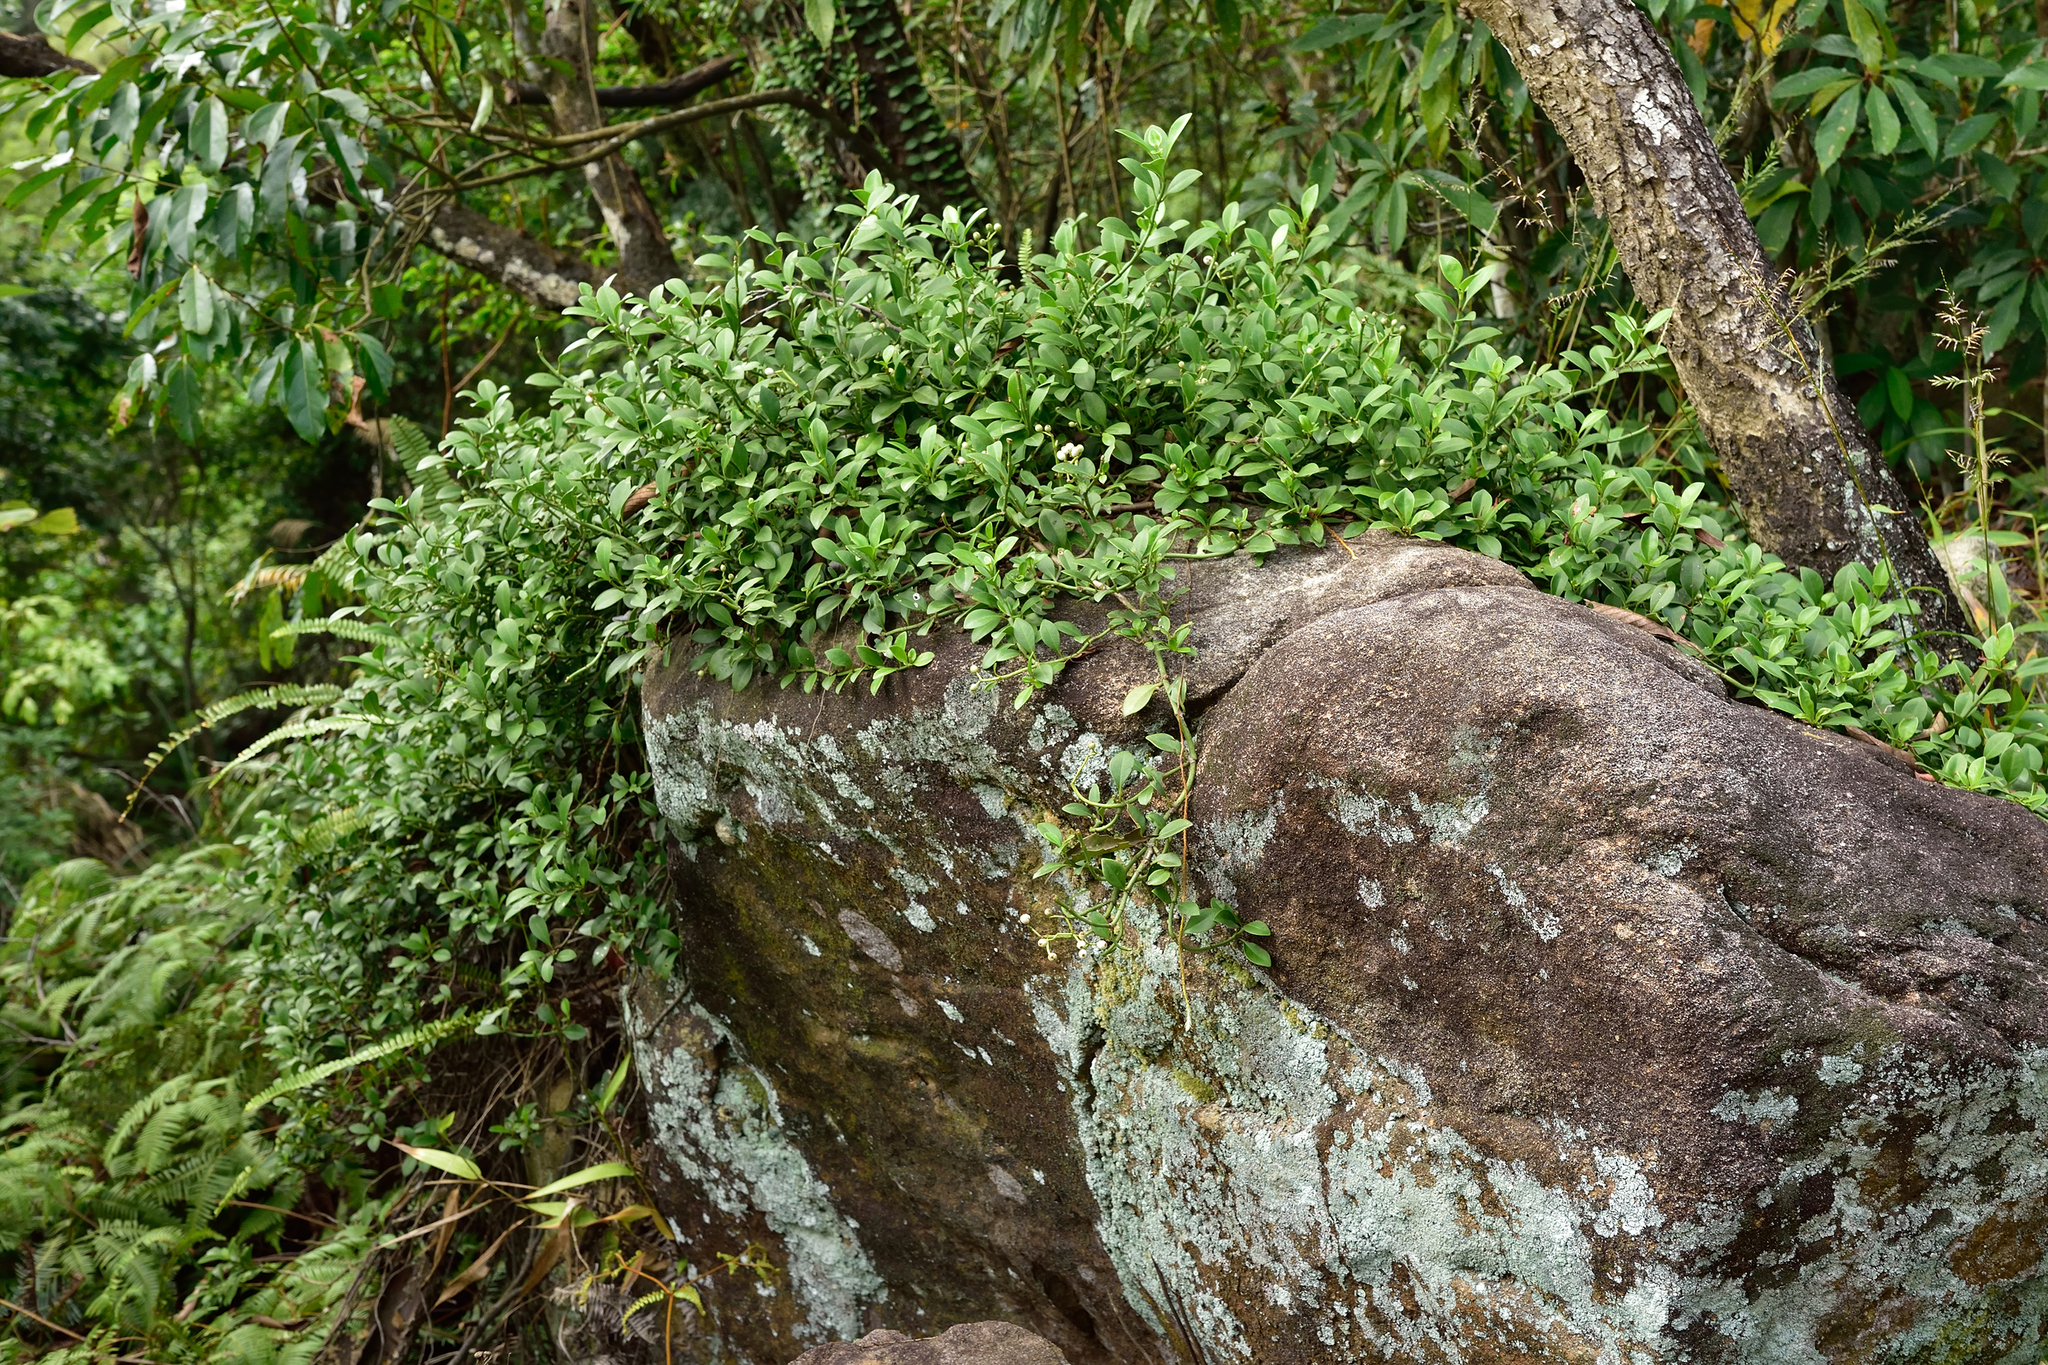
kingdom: Plantae
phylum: Tracheophyta
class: Magnoliopsida
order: Gentianales
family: Rubiaceae
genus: Psychotria
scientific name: Psychotria serpens
